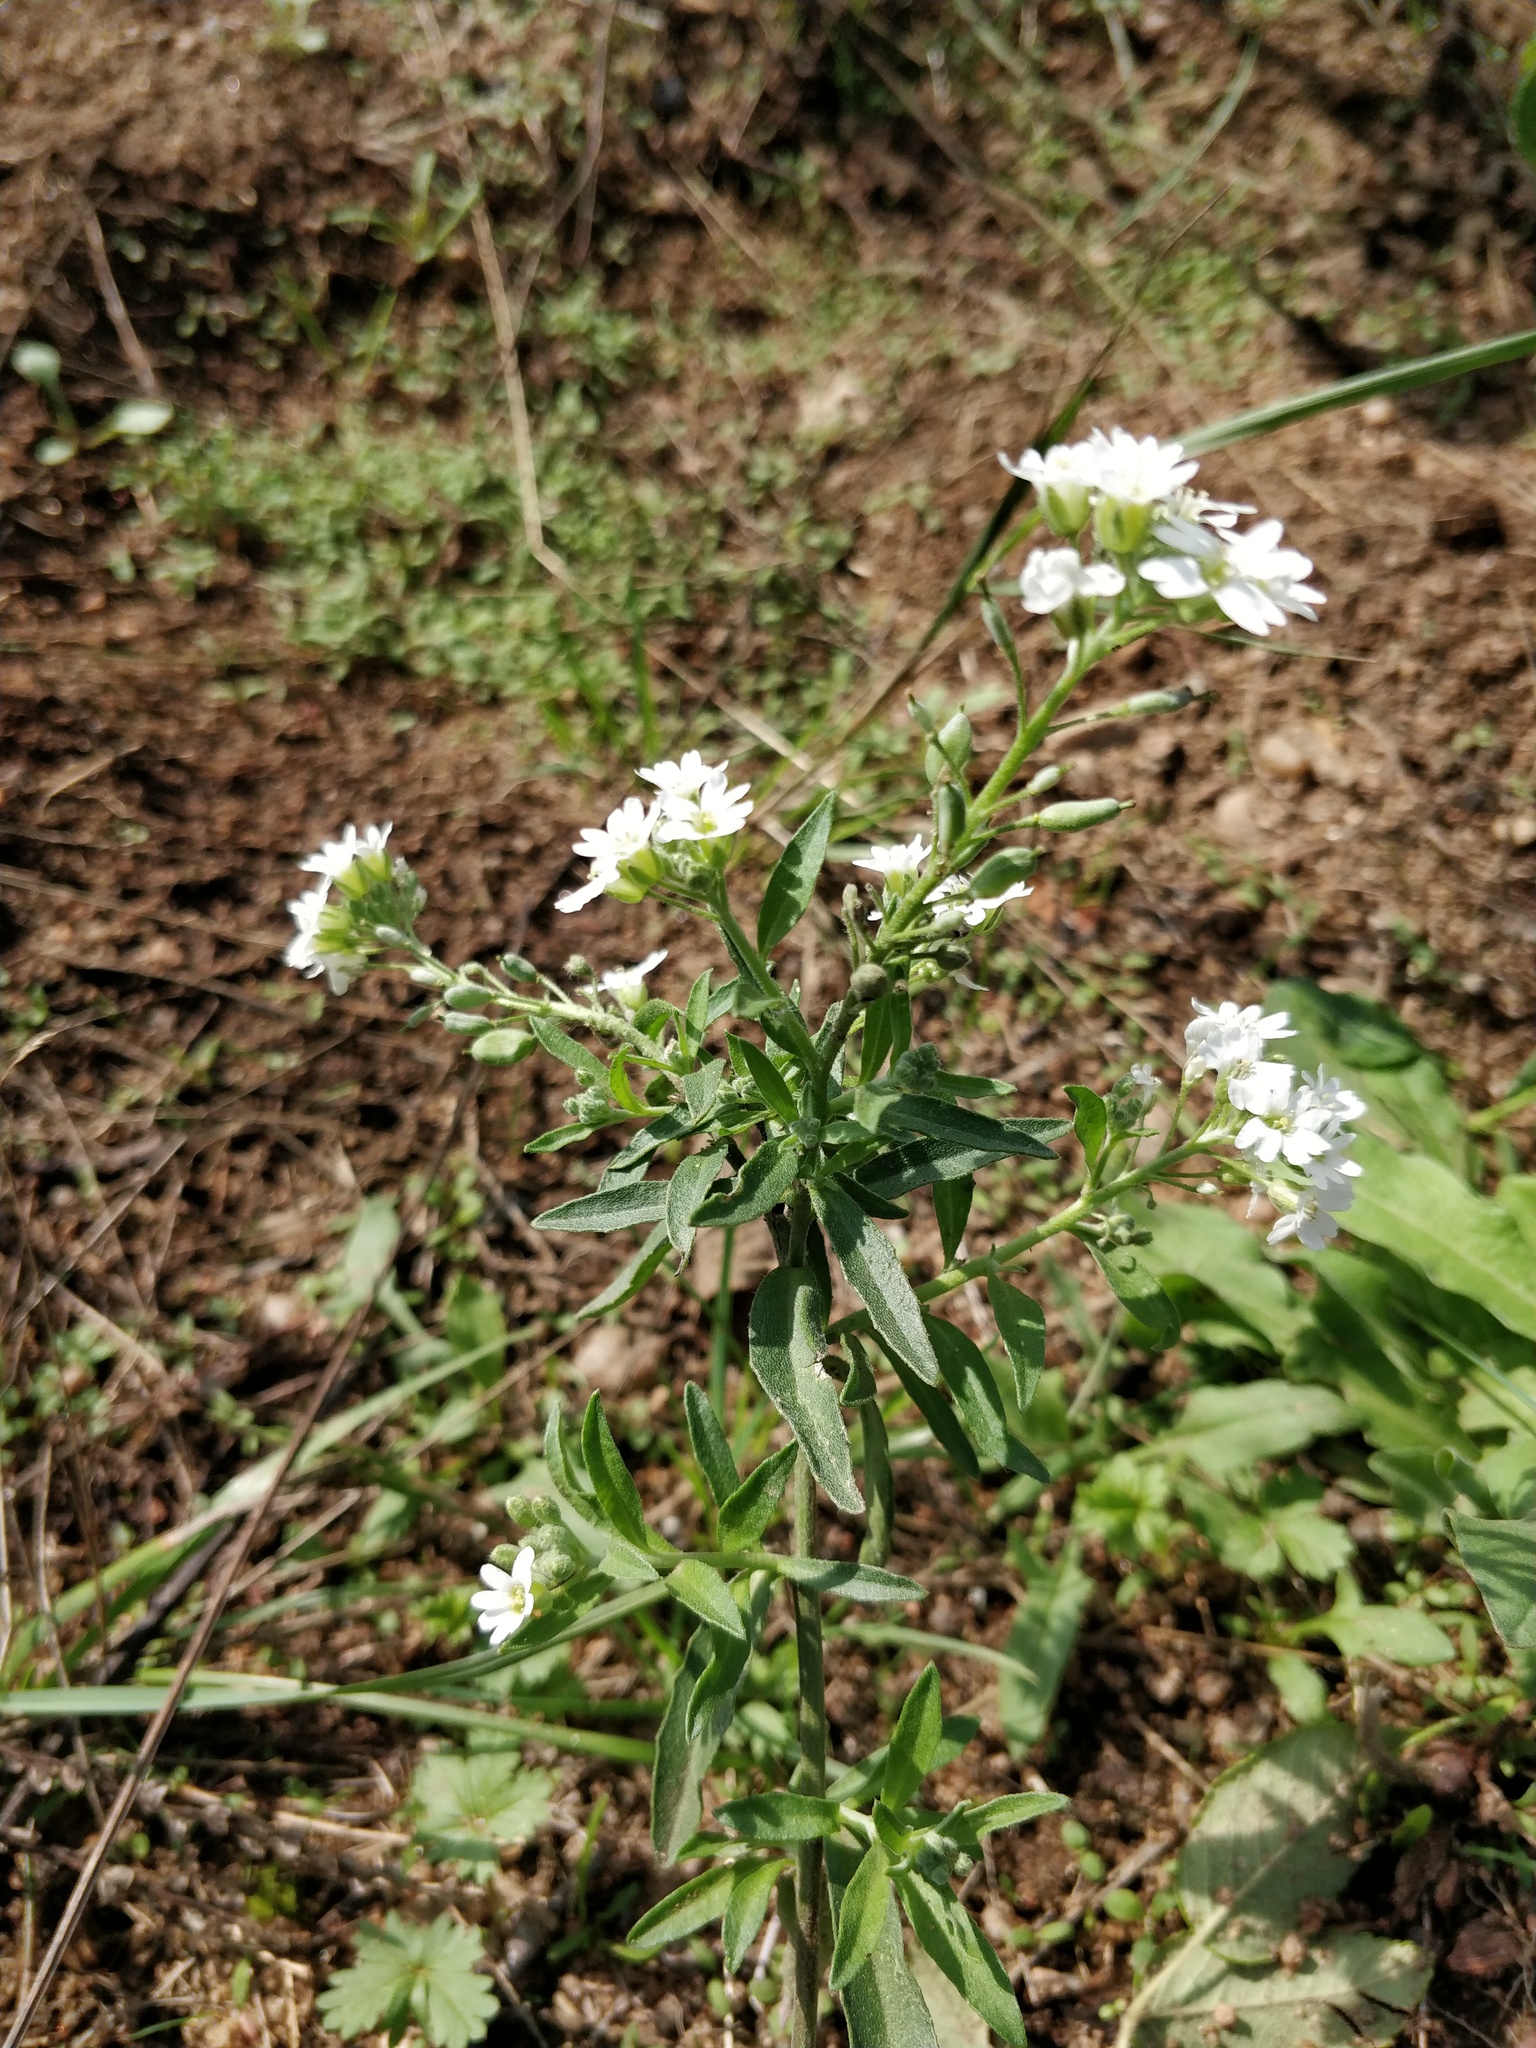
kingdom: Plantae
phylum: Tracheophyta
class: Magnoliopsida
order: Brassicales
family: Brassicaceae
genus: Berteroa
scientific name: Berteroa incana
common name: Hoary alison
